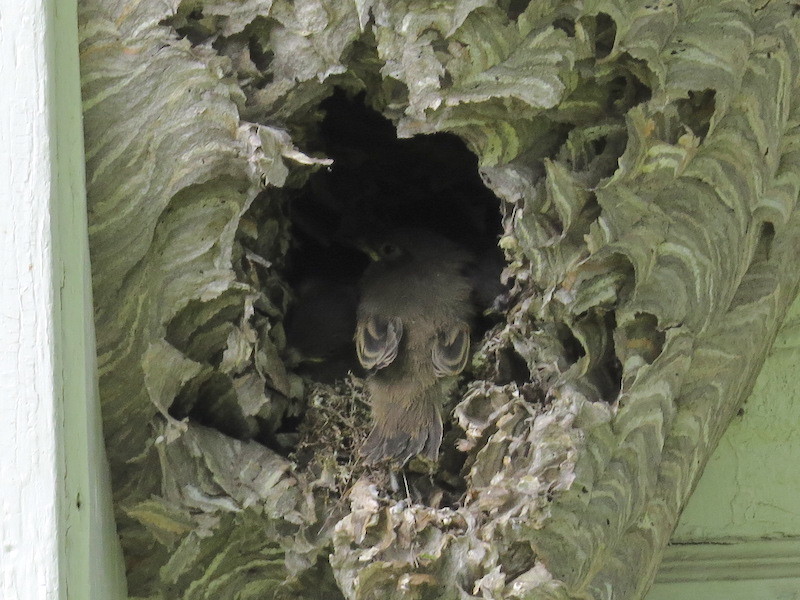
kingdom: Animalia
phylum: Chordata
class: Aves
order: Passeriformes
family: Tyrannidae
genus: Sayornis
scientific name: Sayornis phoebe
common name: Eastern phoebe
